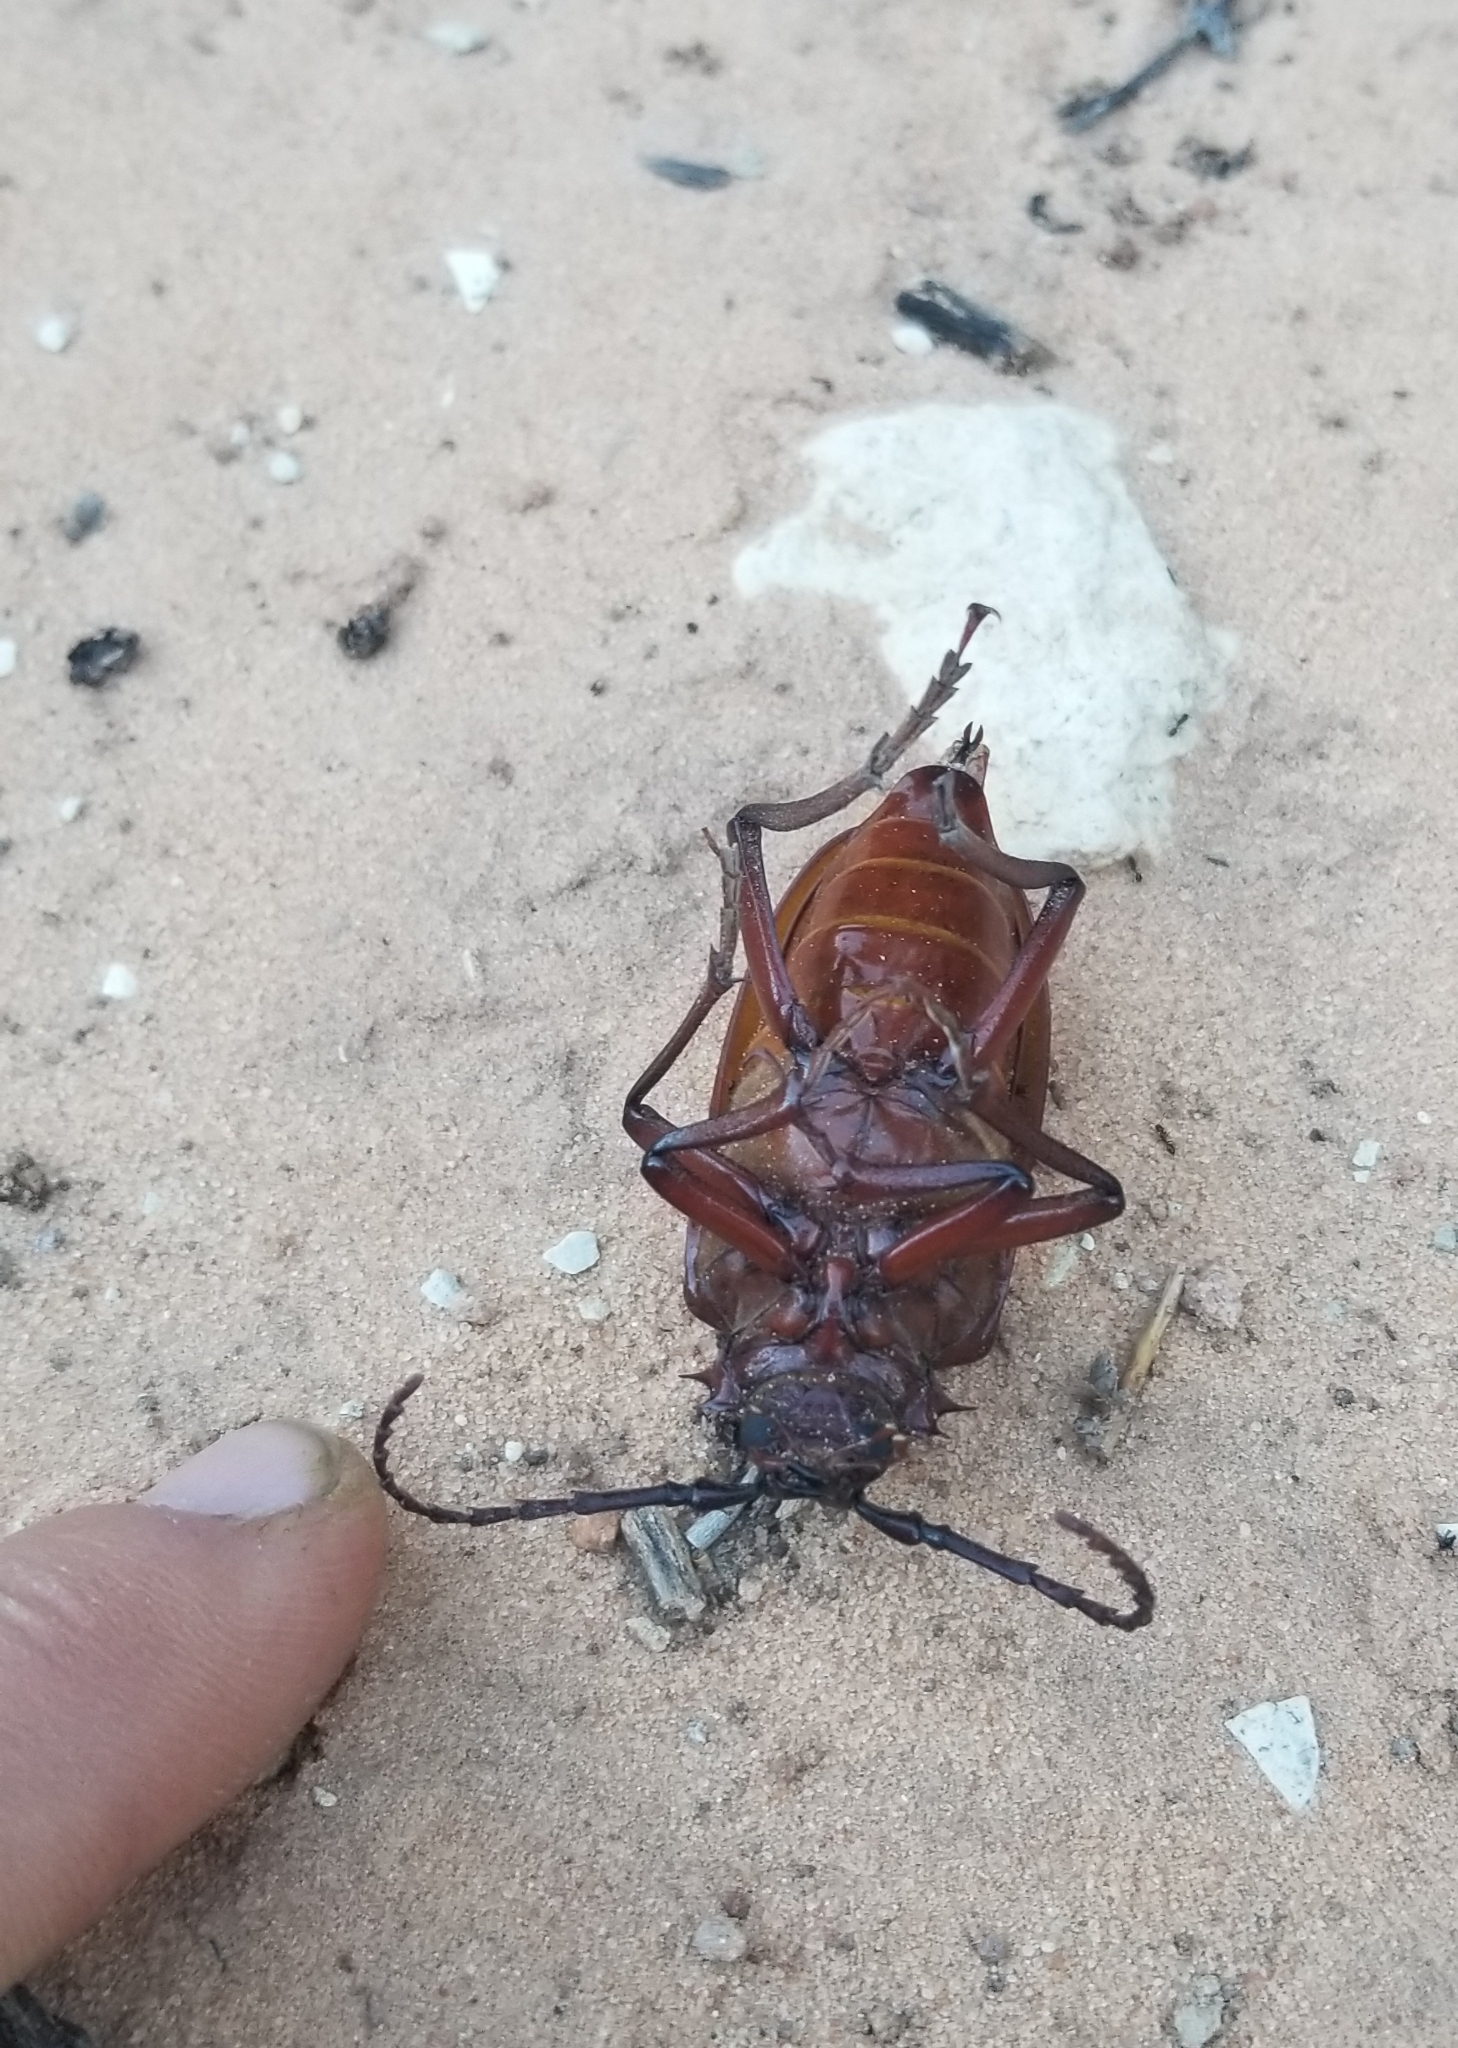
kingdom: Animalia
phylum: Arthropoda
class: Insecta
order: Coleoptera
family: Cerambycidae
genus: Prionus
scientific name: Prionus californicus
